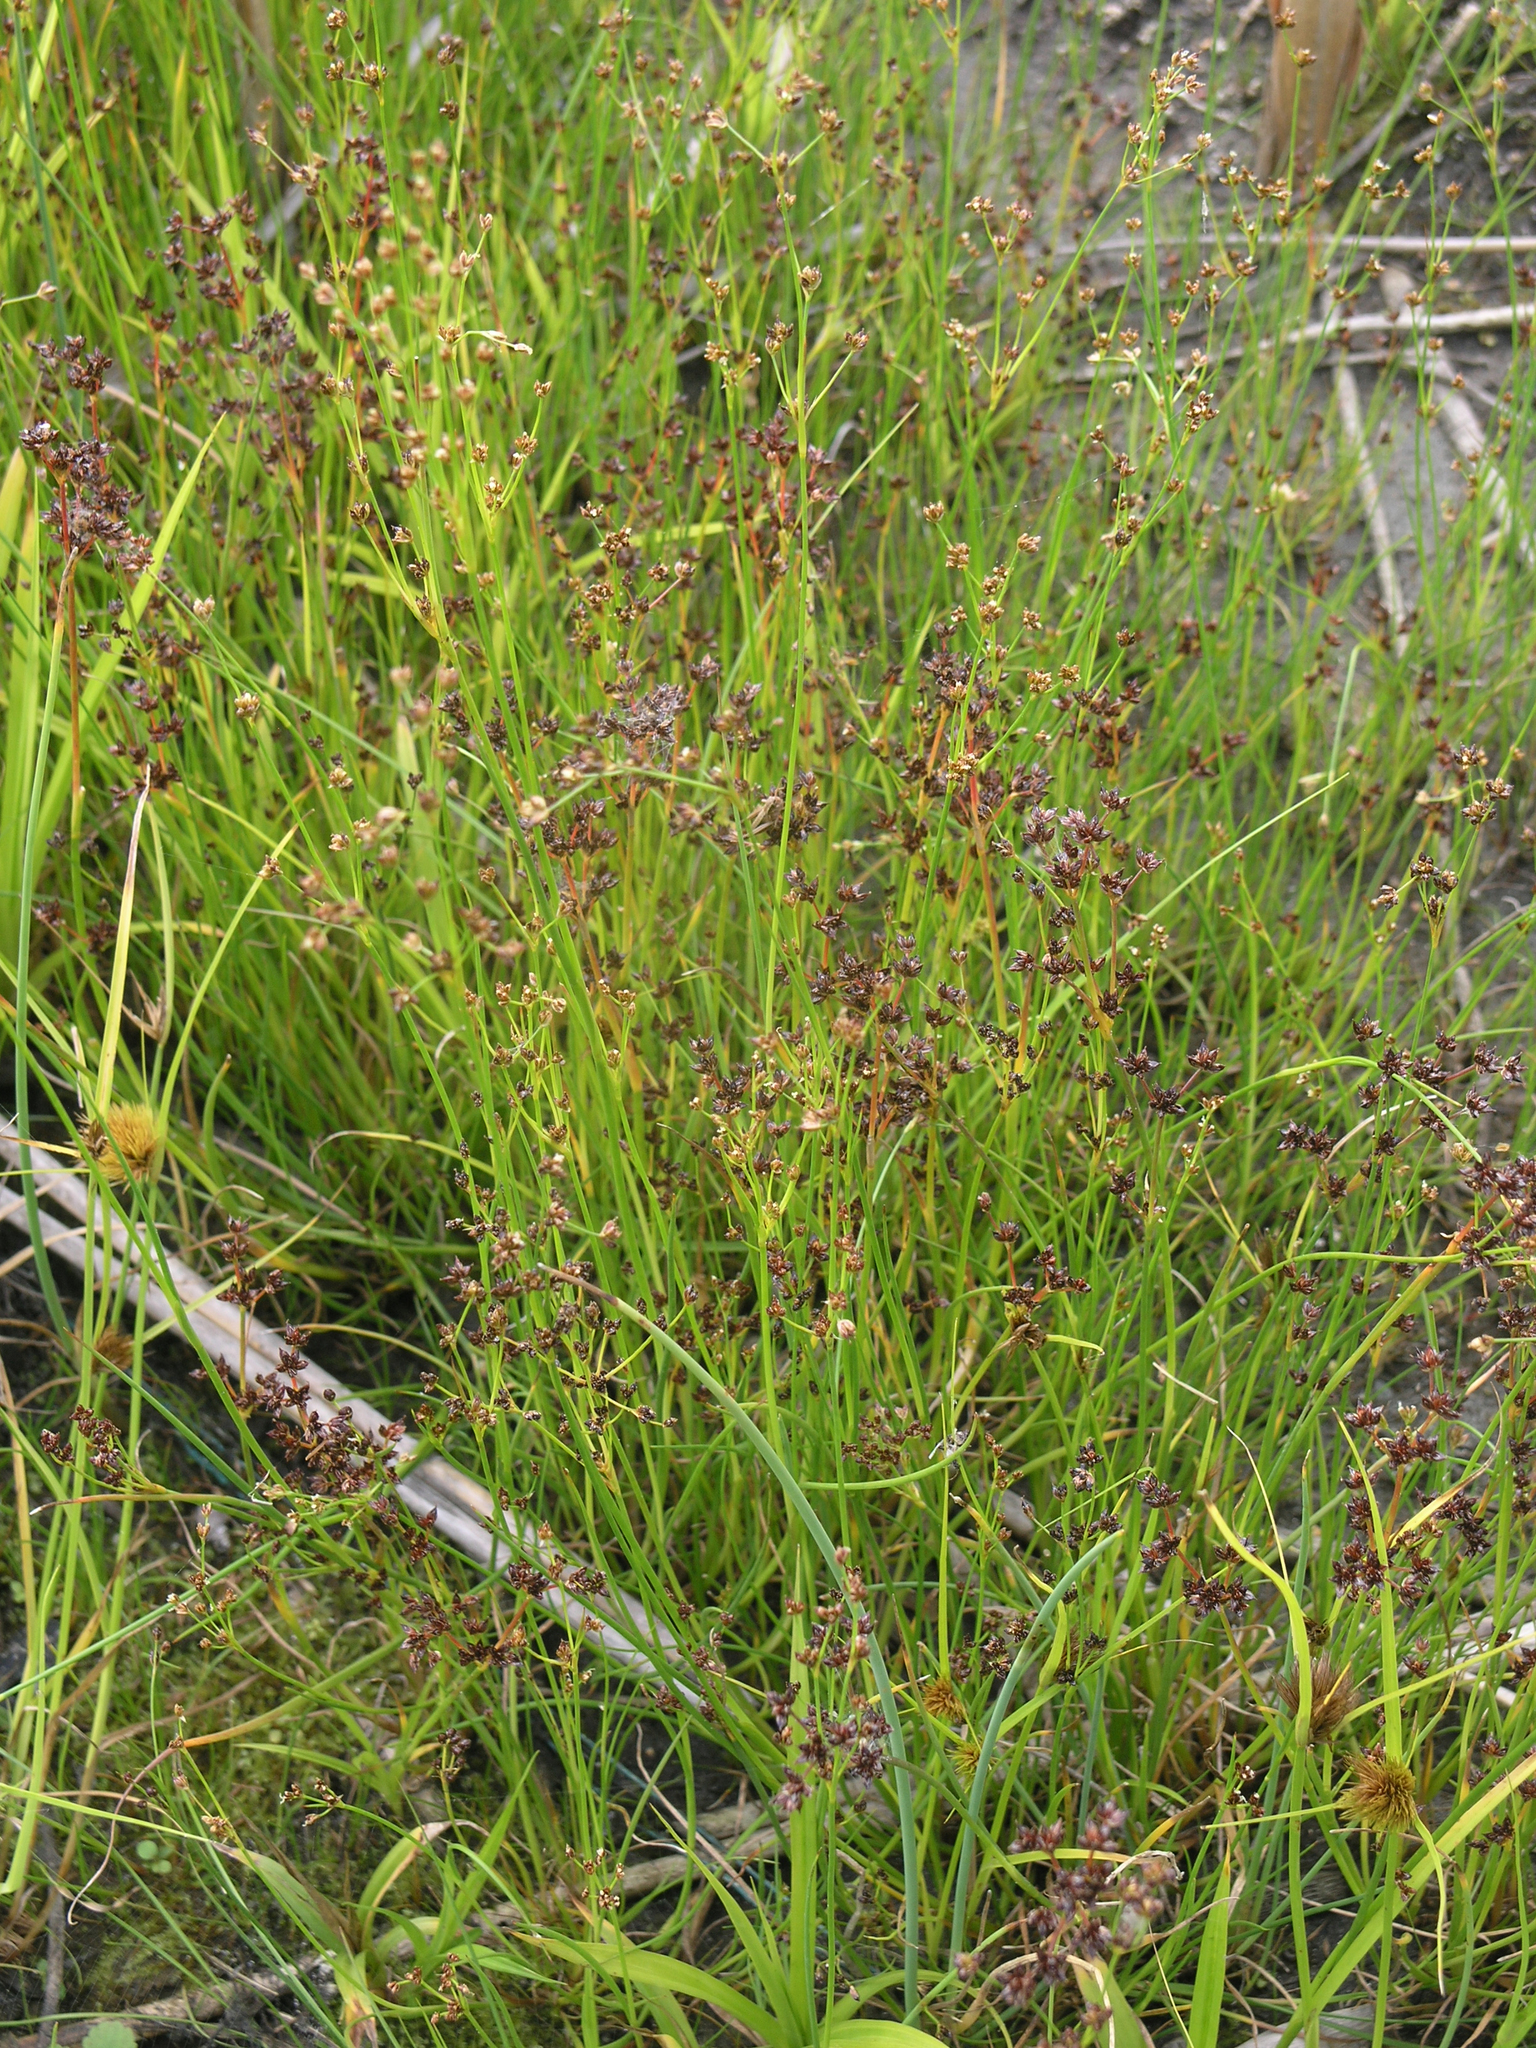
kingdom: Plantae
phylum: Tracheophyta
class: Liliopsida
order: Poales
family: Juncaceae
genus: Juncus
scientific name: Juncus articulatus
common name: Jointed rush
